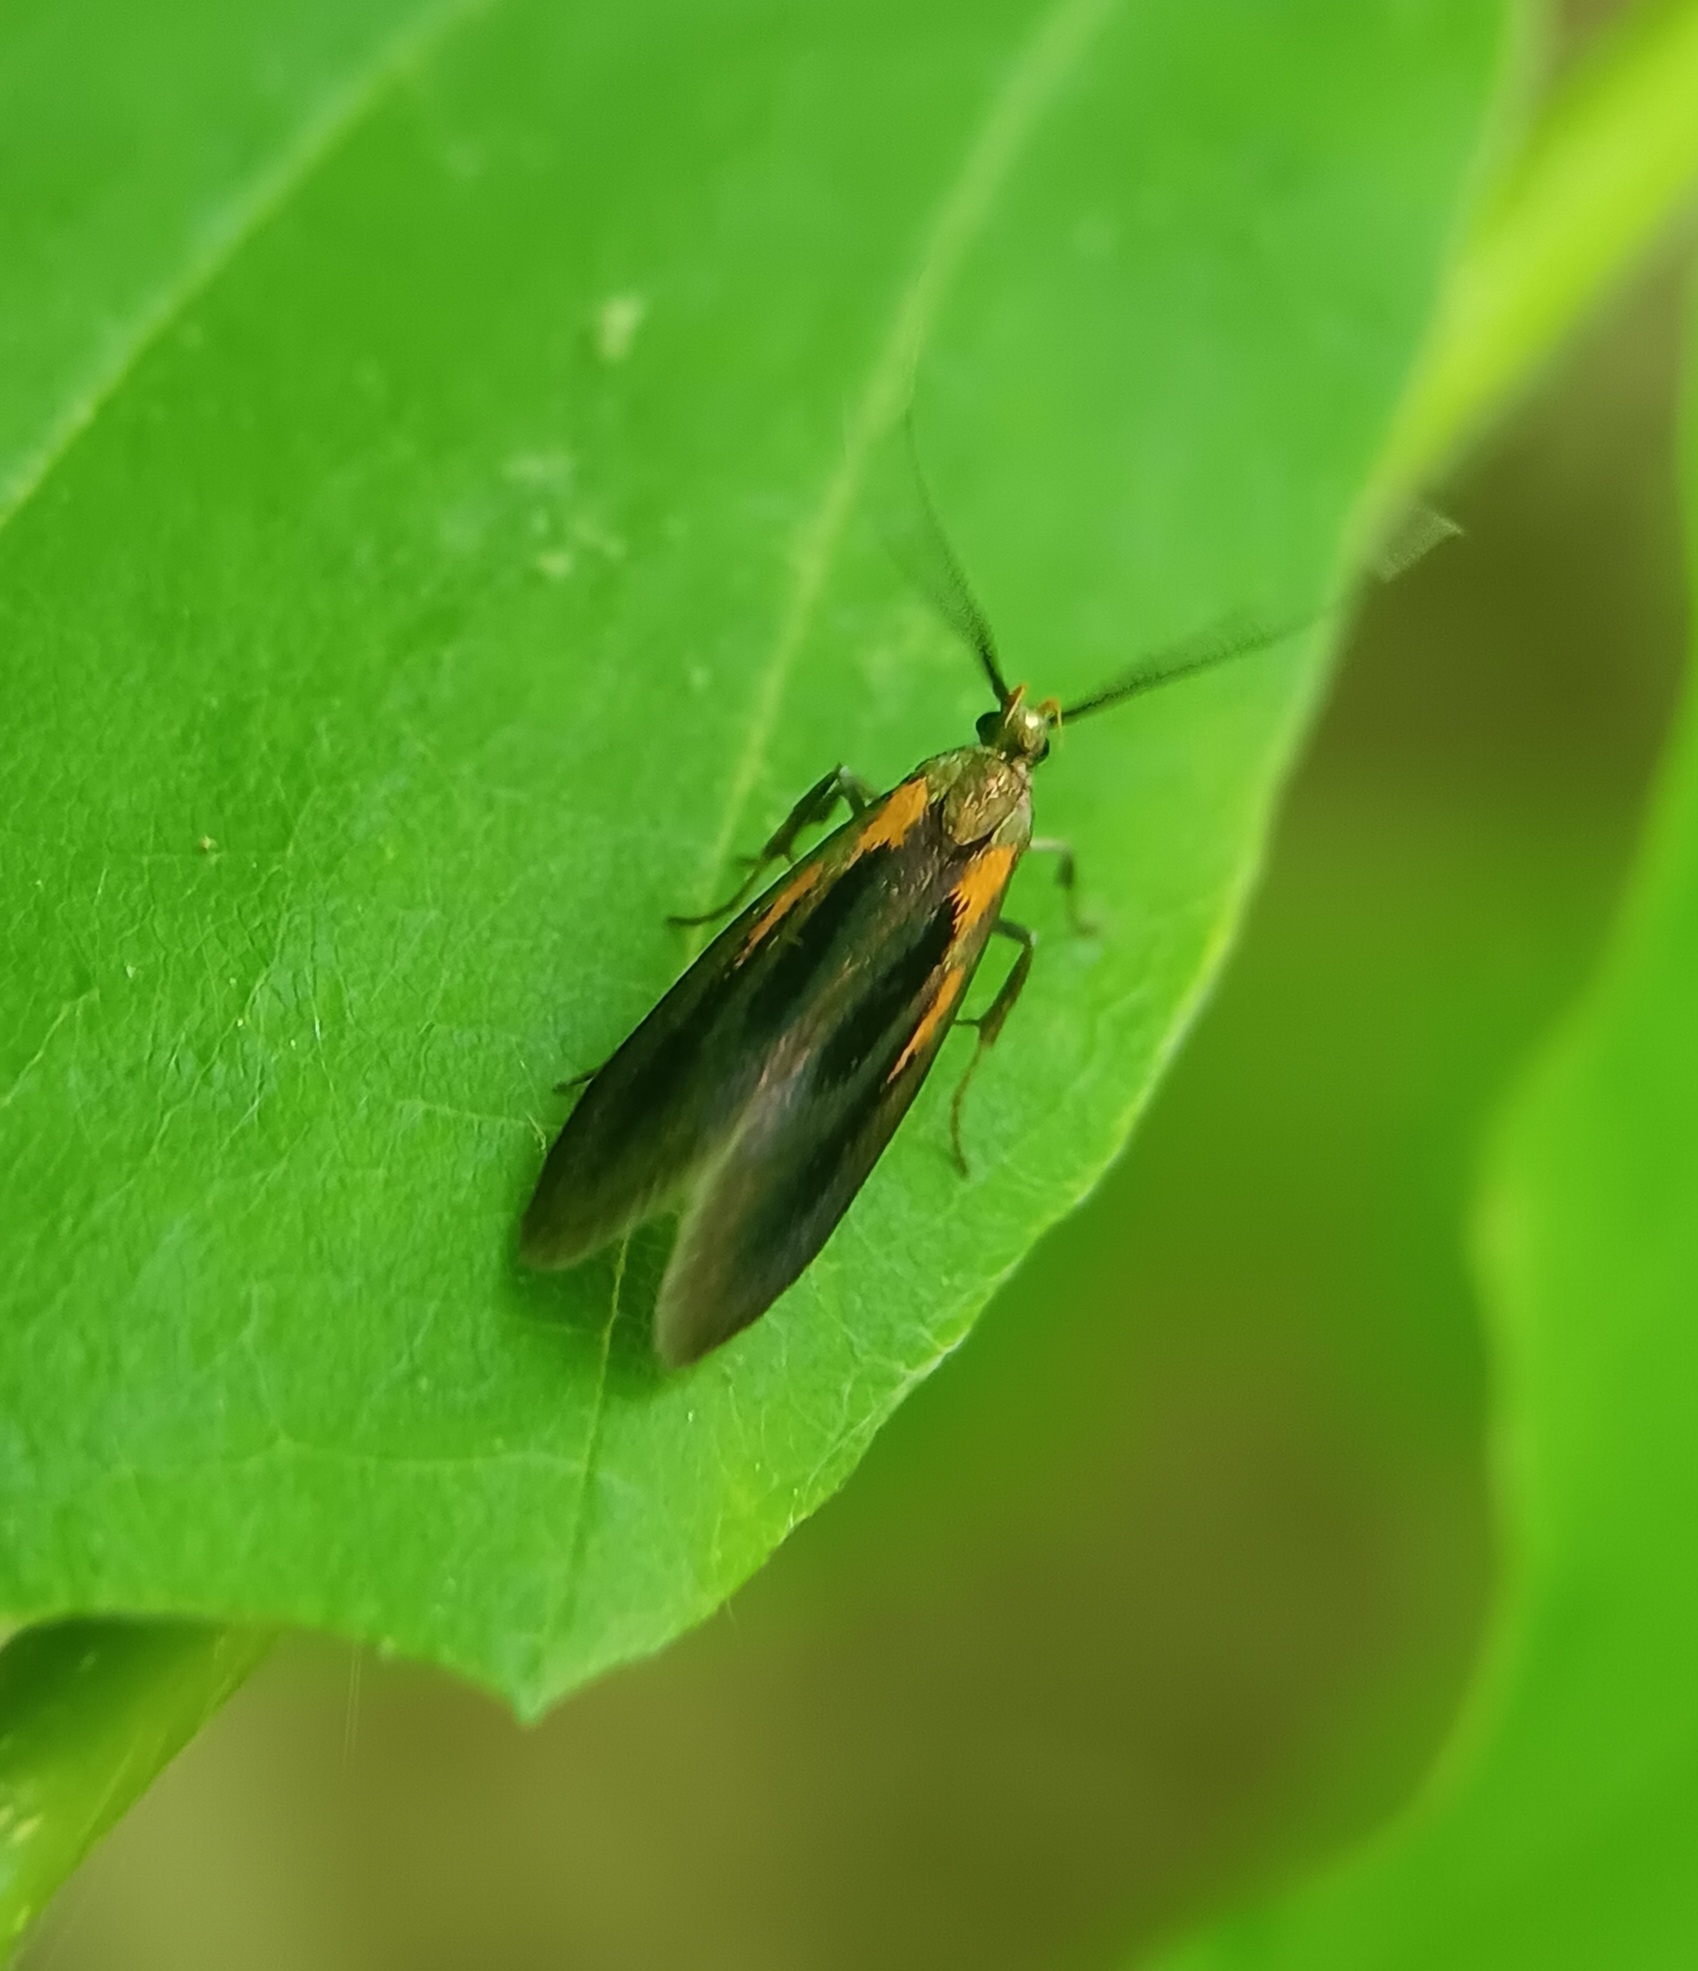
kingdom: Animalia
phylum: Arthropoda
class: Insecta
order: Lepidoptera
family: Oecophoridae
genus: Mathildana
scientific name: Mathildana newmanella
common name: Newman's mathildana moth
